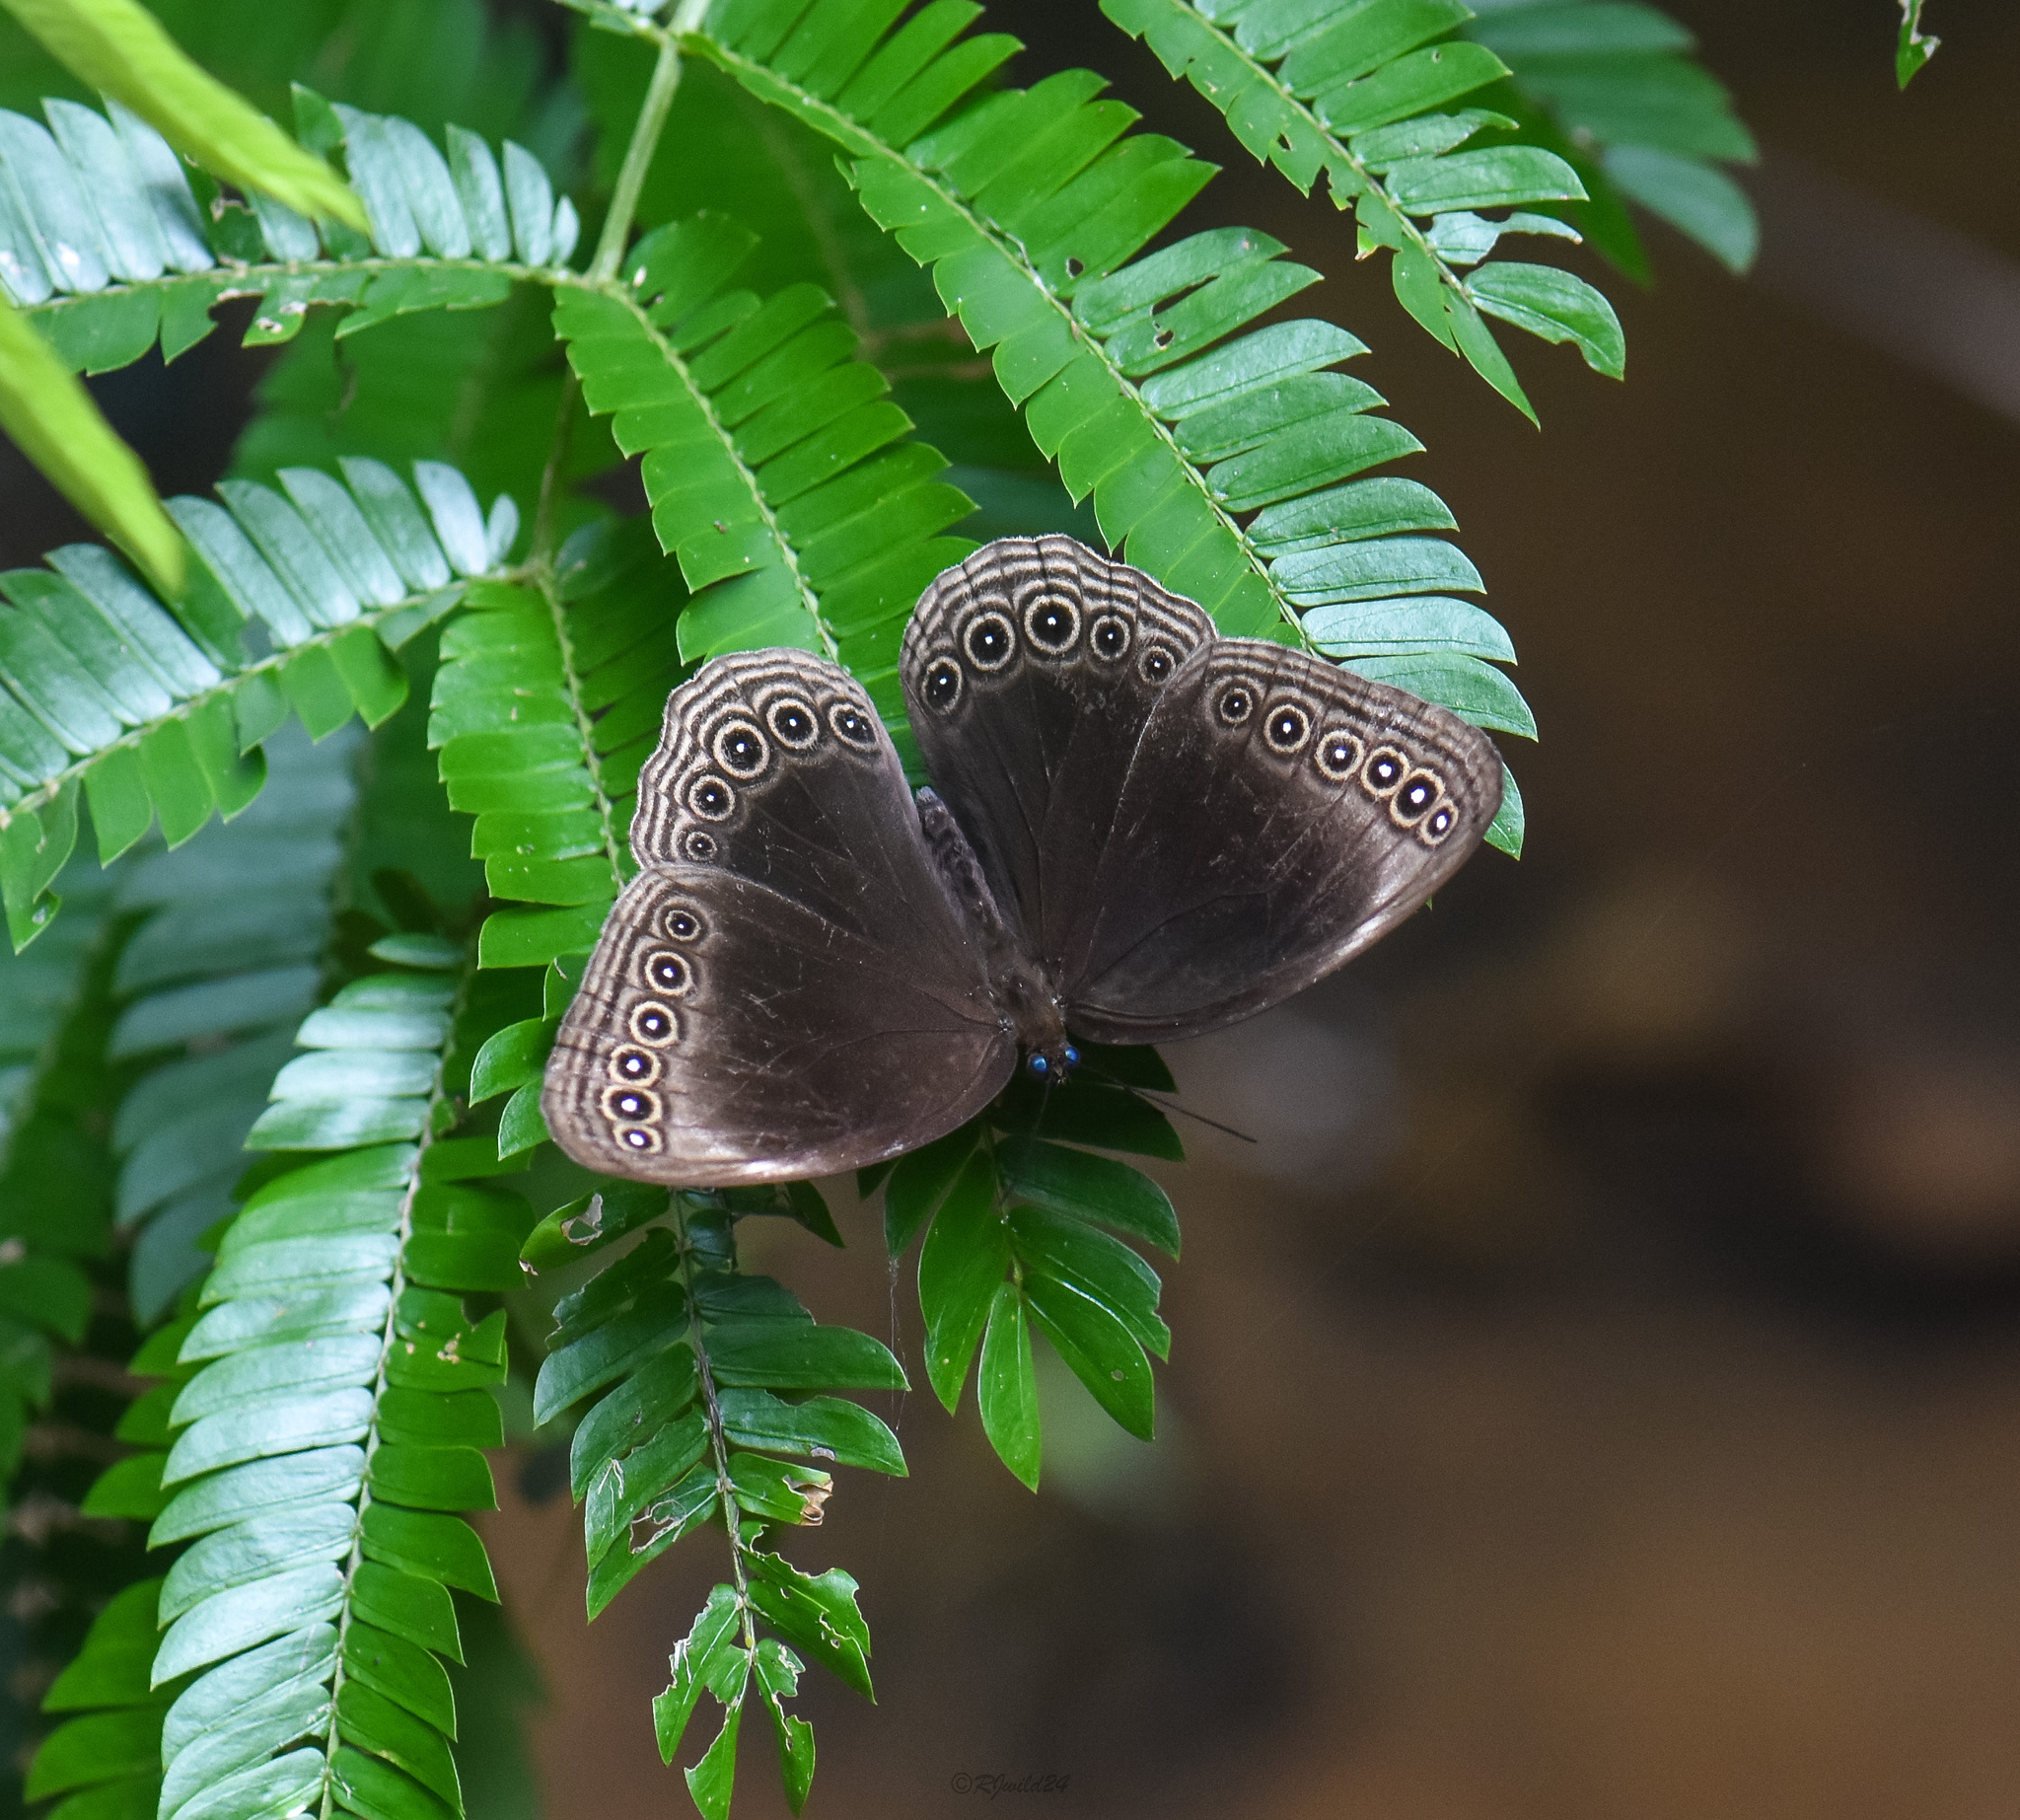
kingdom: Animalia
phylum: Arthropoda
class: Insecta
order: Lepidoptera
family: Nymphalidae
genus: Ethope
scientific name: Ethope himachala
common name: Dusky diadem
